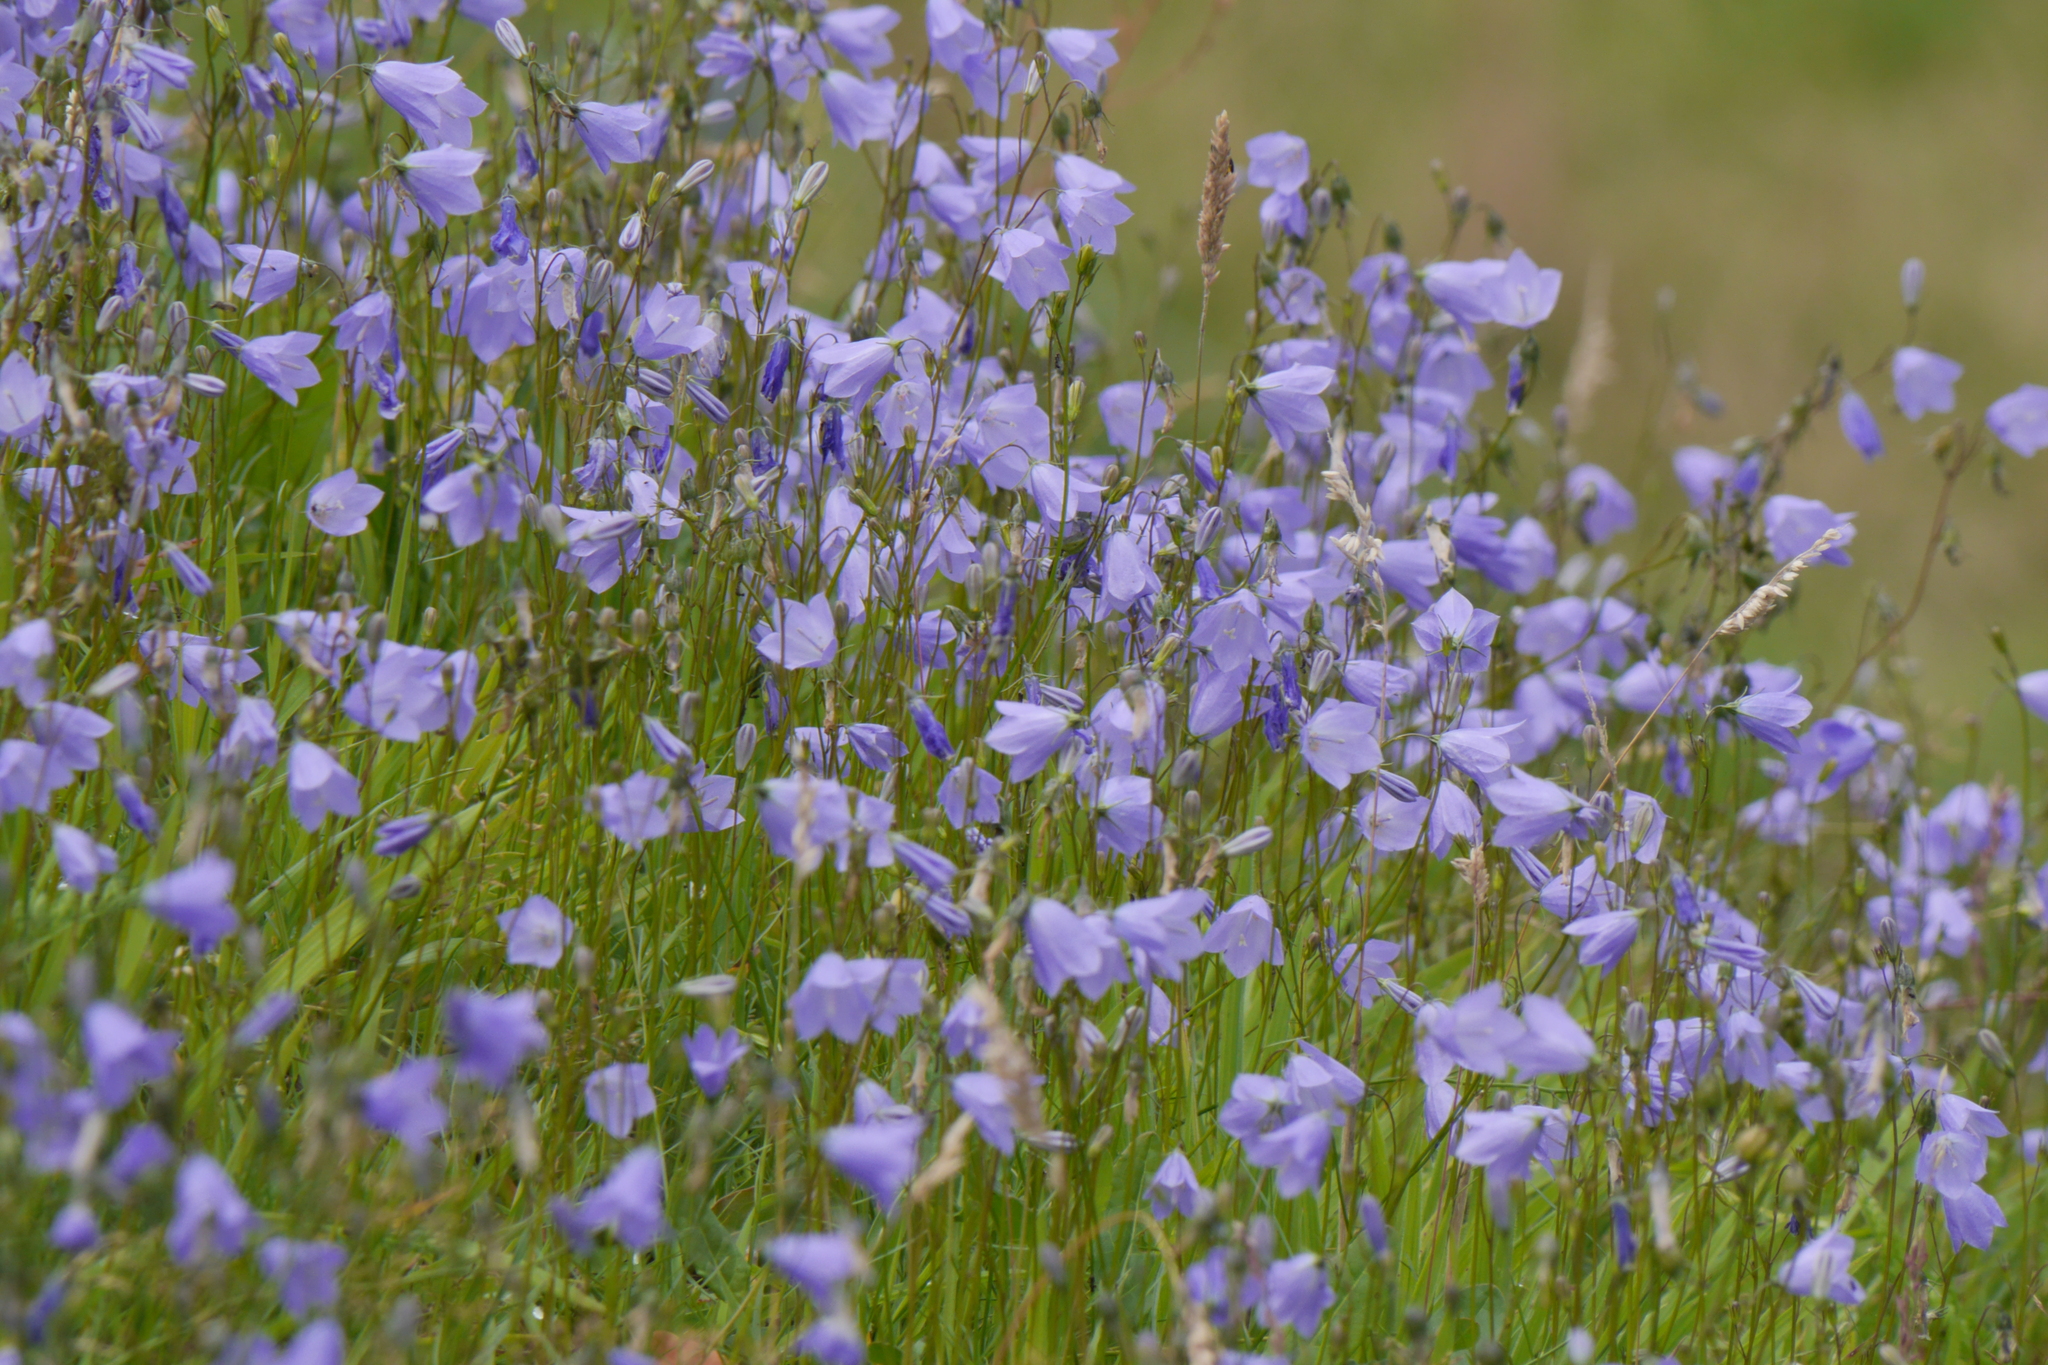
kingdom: Plantae
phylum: Tracheophyta
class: Magnoliopsida
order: Asterales
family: Campanulaceae
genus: Campanula
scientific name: Campanula rotundifolia
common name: Harebell
